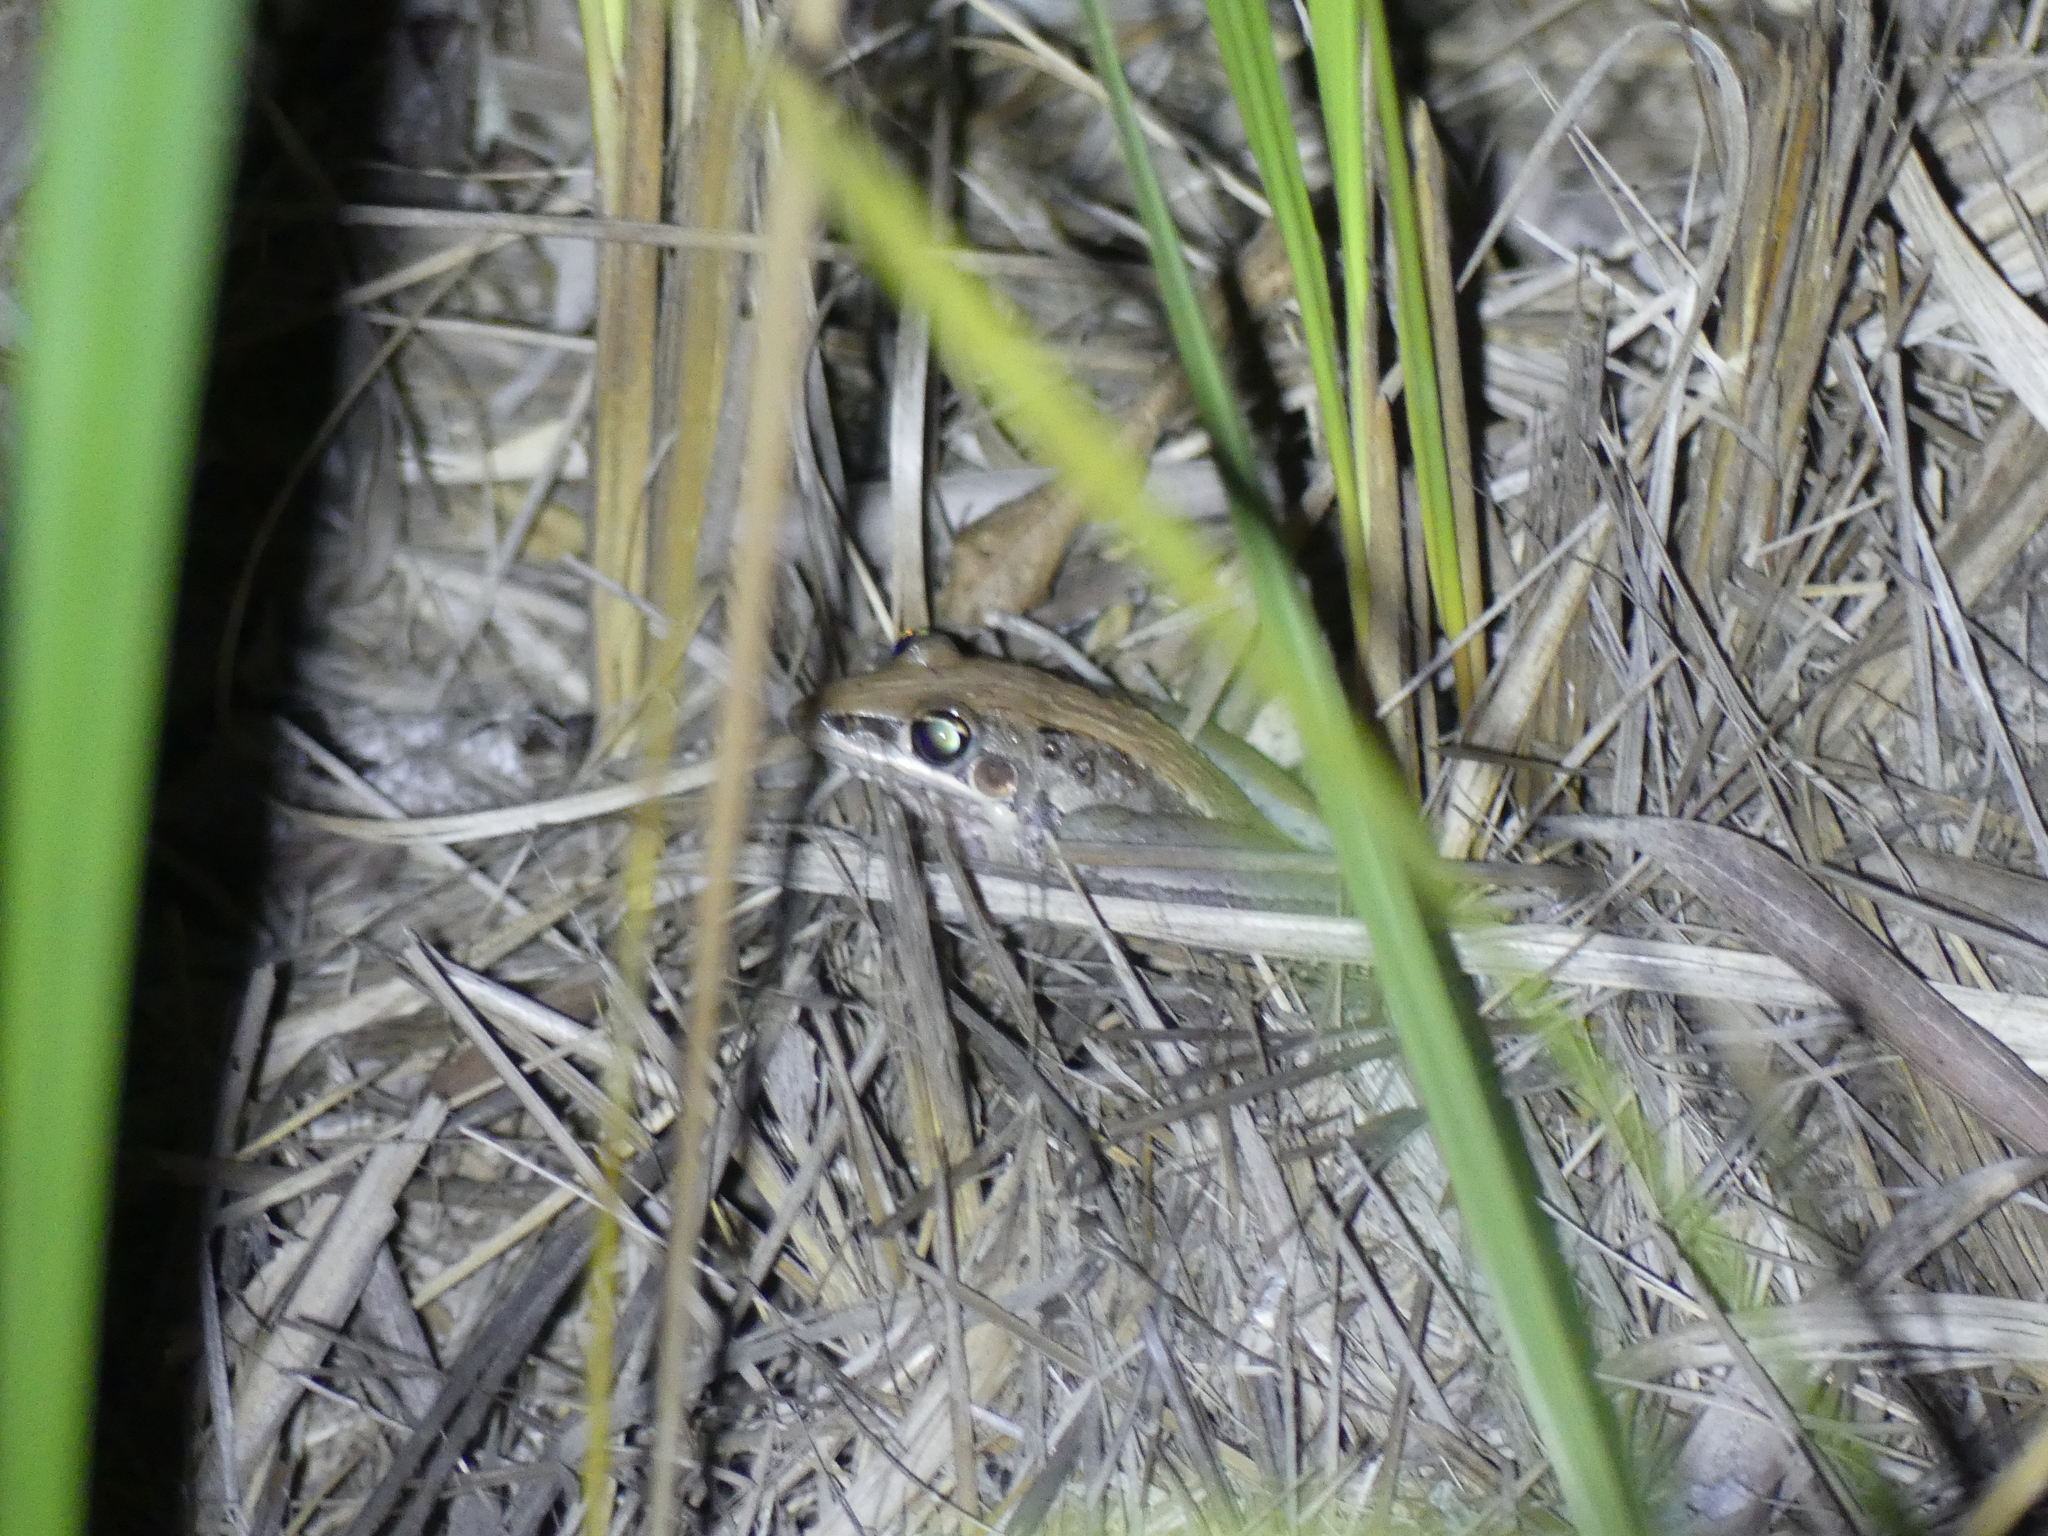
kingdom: Animalia
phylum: Chordata
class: Amphibia
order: Anura
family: Pelodryadidae
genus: Litoria
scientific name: Litoria nasuta
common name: Rocket frog
